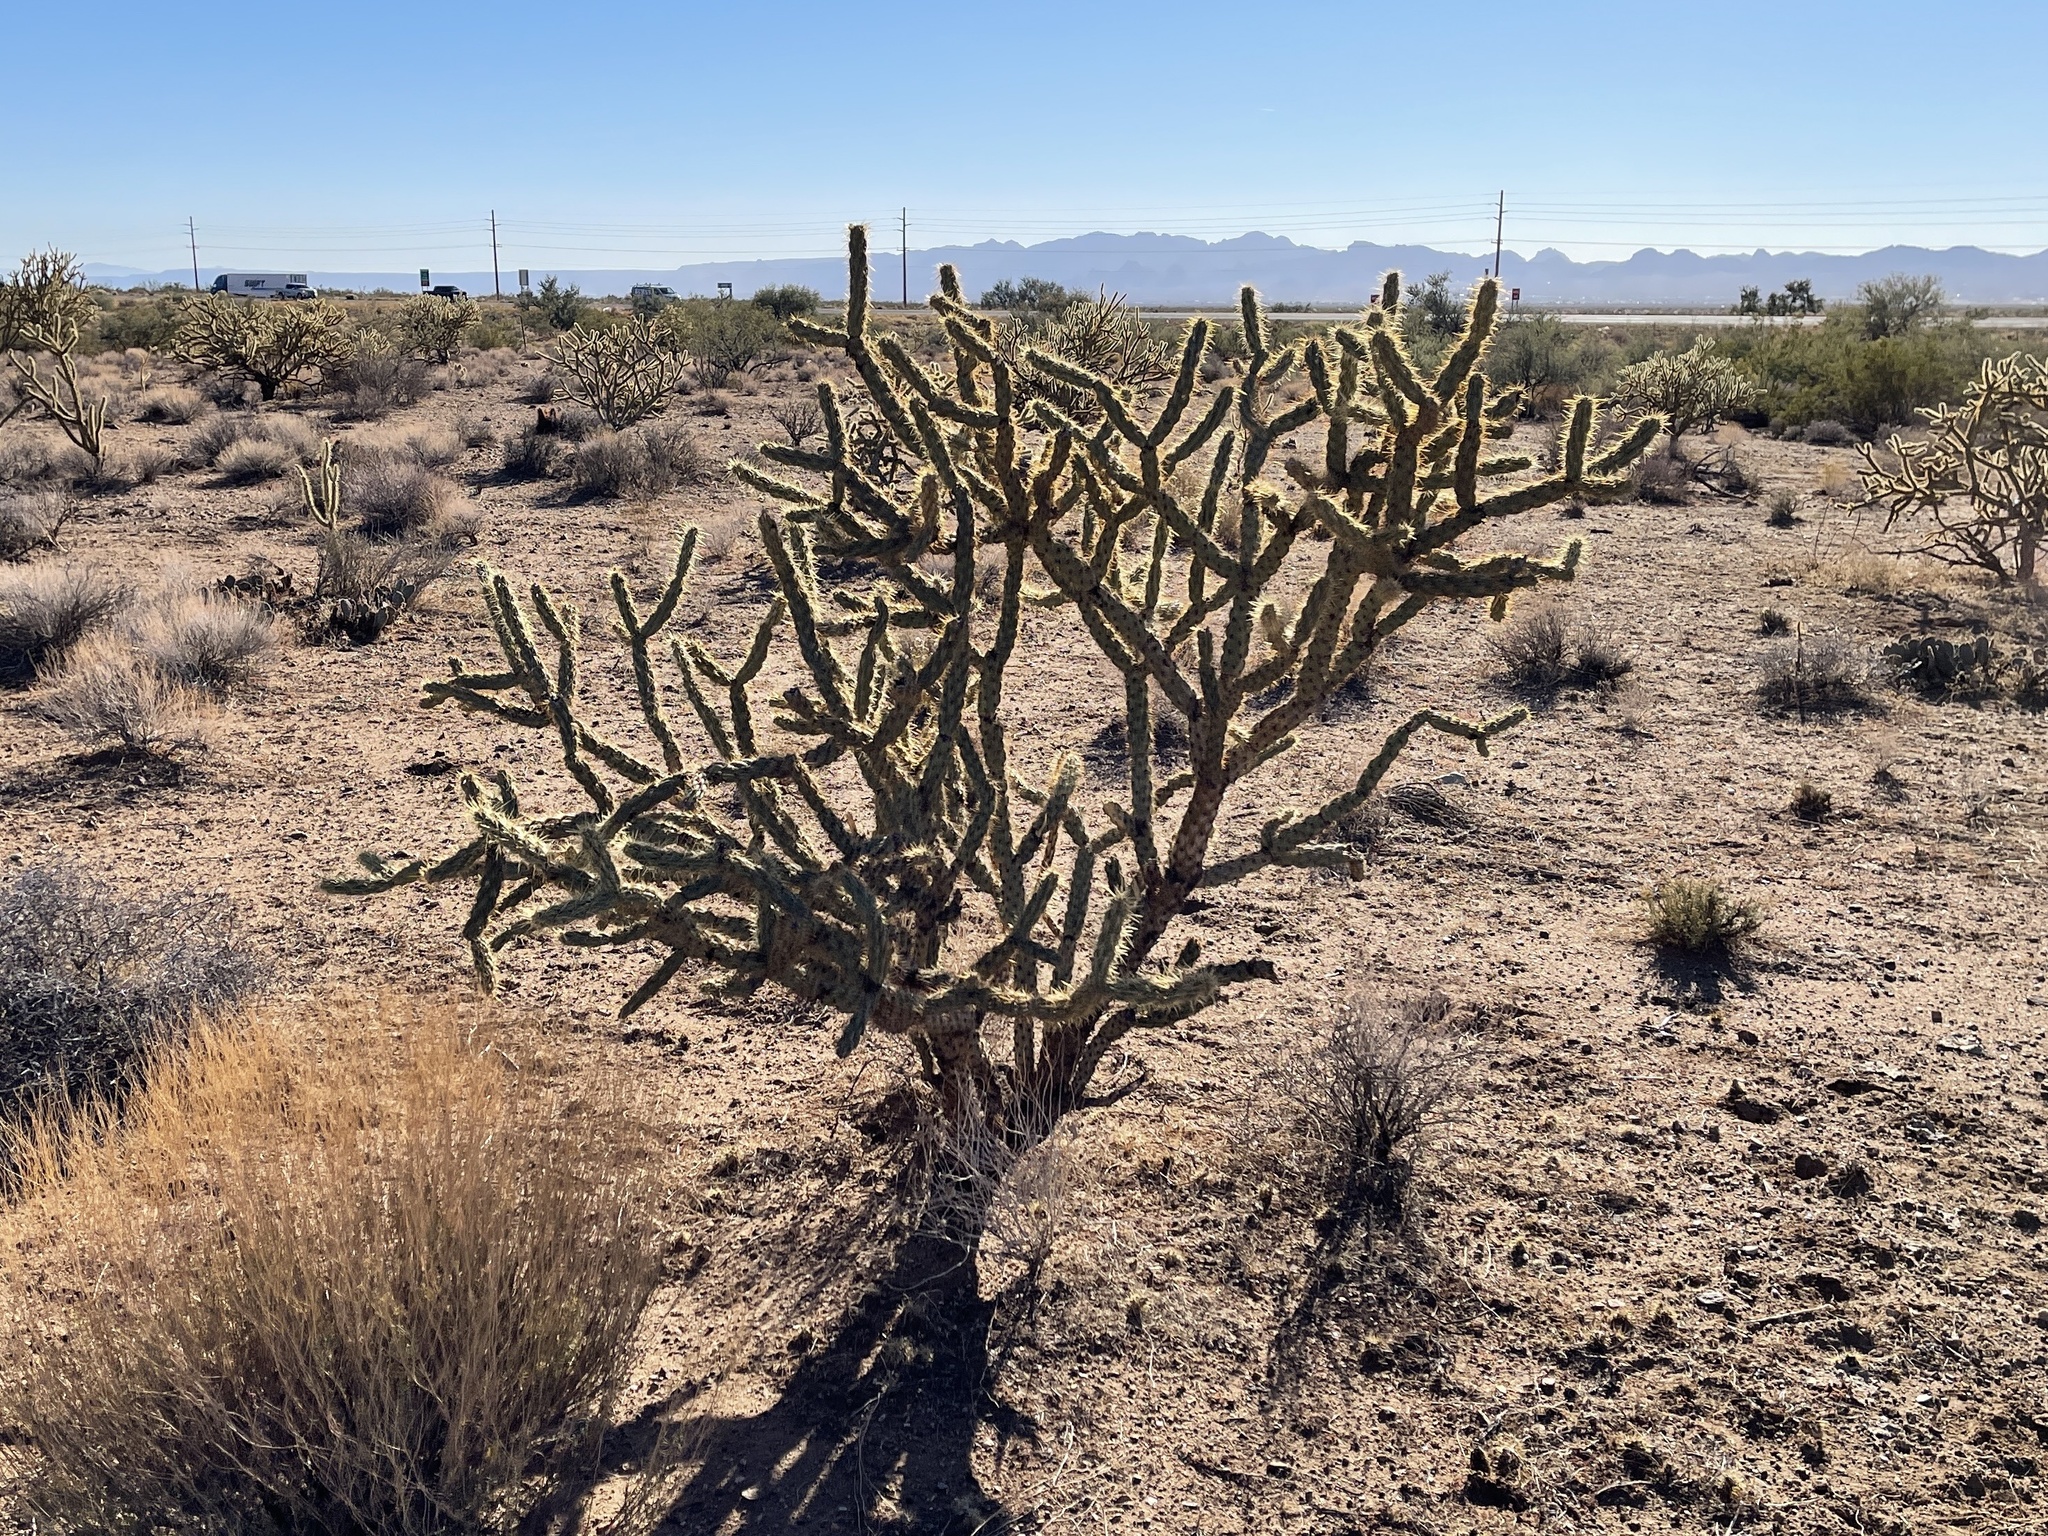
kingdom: Plantae
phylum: Tracheophyta
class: Magnoliopsida
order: Caryophyllales
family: Cactaceae
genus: Cylindropuntia
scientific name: Cylindropuntia acanthocarpa
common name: Buckhorn cholla
